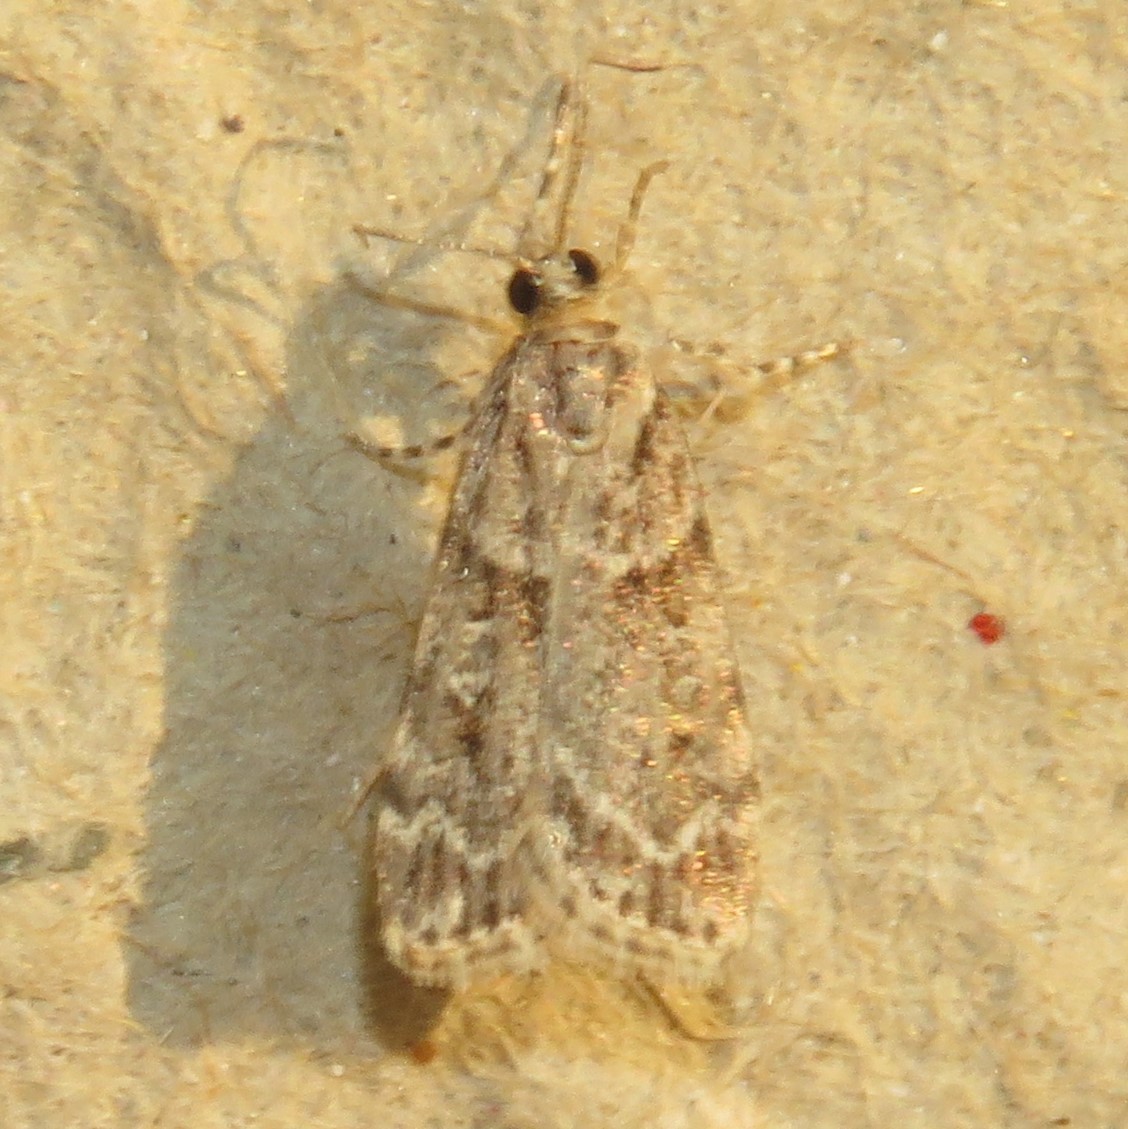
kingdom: Animalia
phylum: Arthropoda
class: Insecta
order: Lepidoptera
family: Crambidae
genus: Scoparia
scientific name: Scoparia biplagialis
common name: Double-striped scoparia moth
